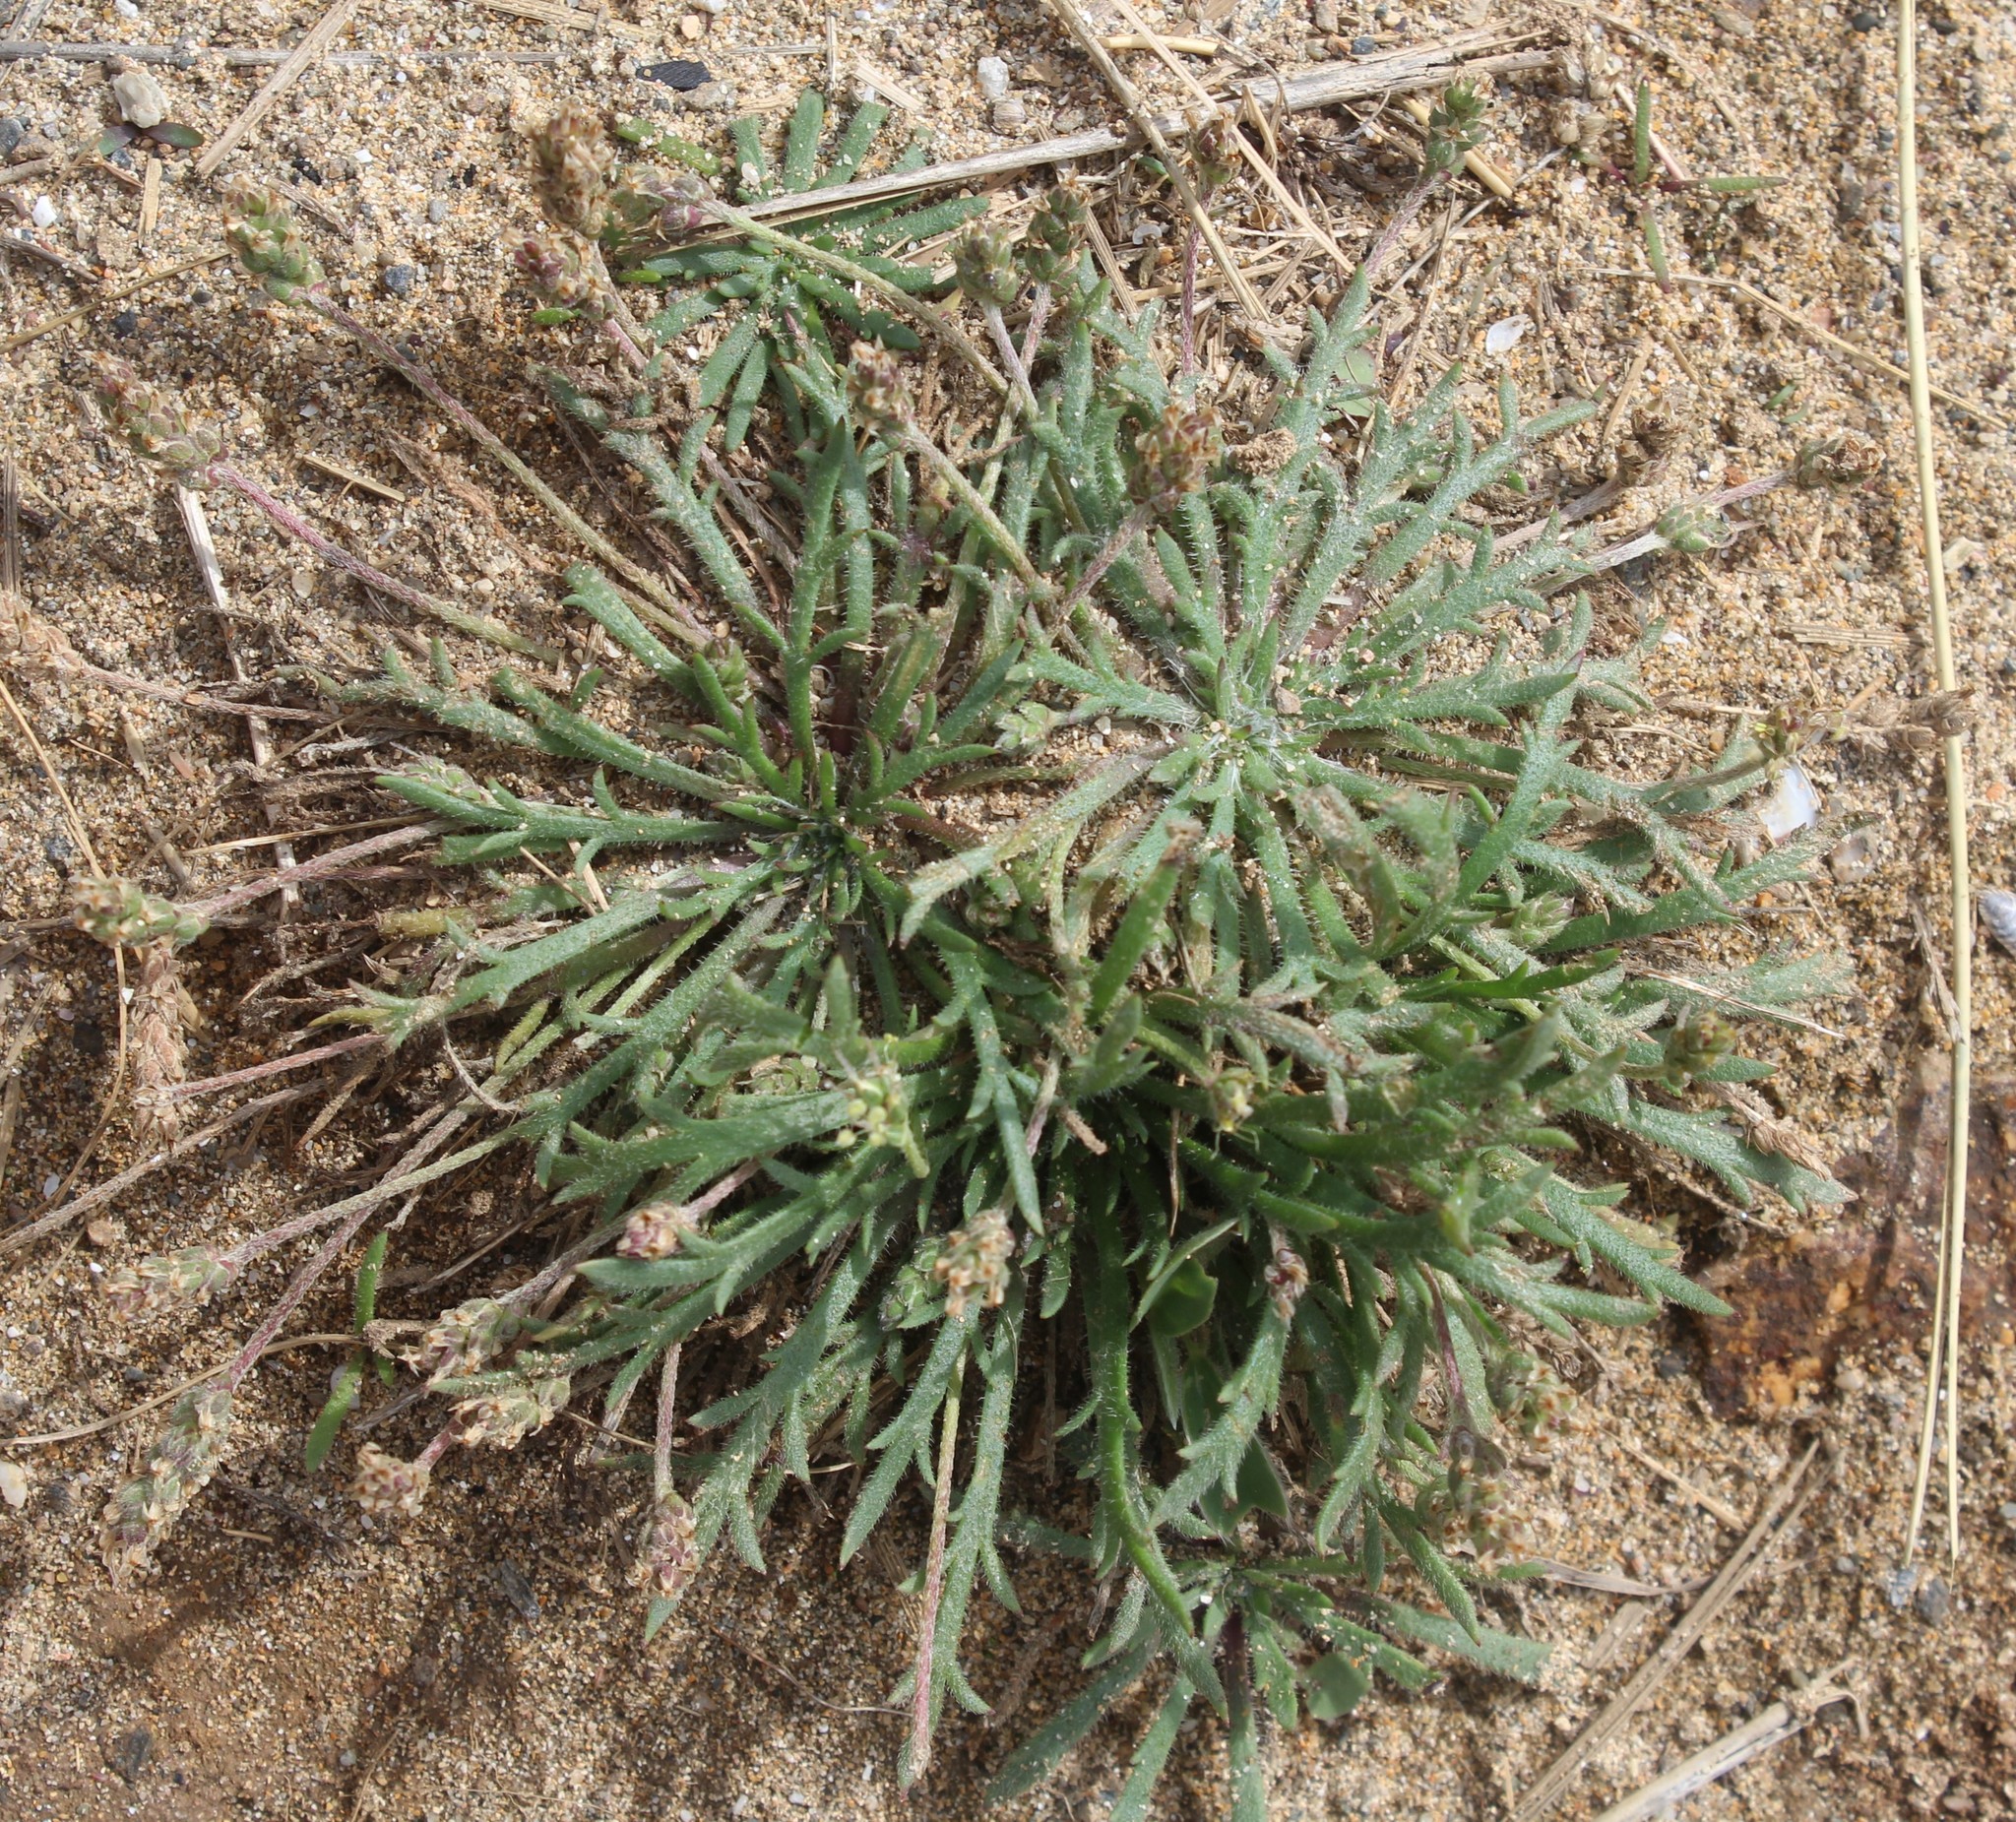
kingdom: Plantae
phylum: Tracheophyta
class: Magnoliopsida
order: Lamiales
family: Plantaginaceae
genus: Plantago
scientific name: Plantago coronopus
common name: Buck's-horn plantain
